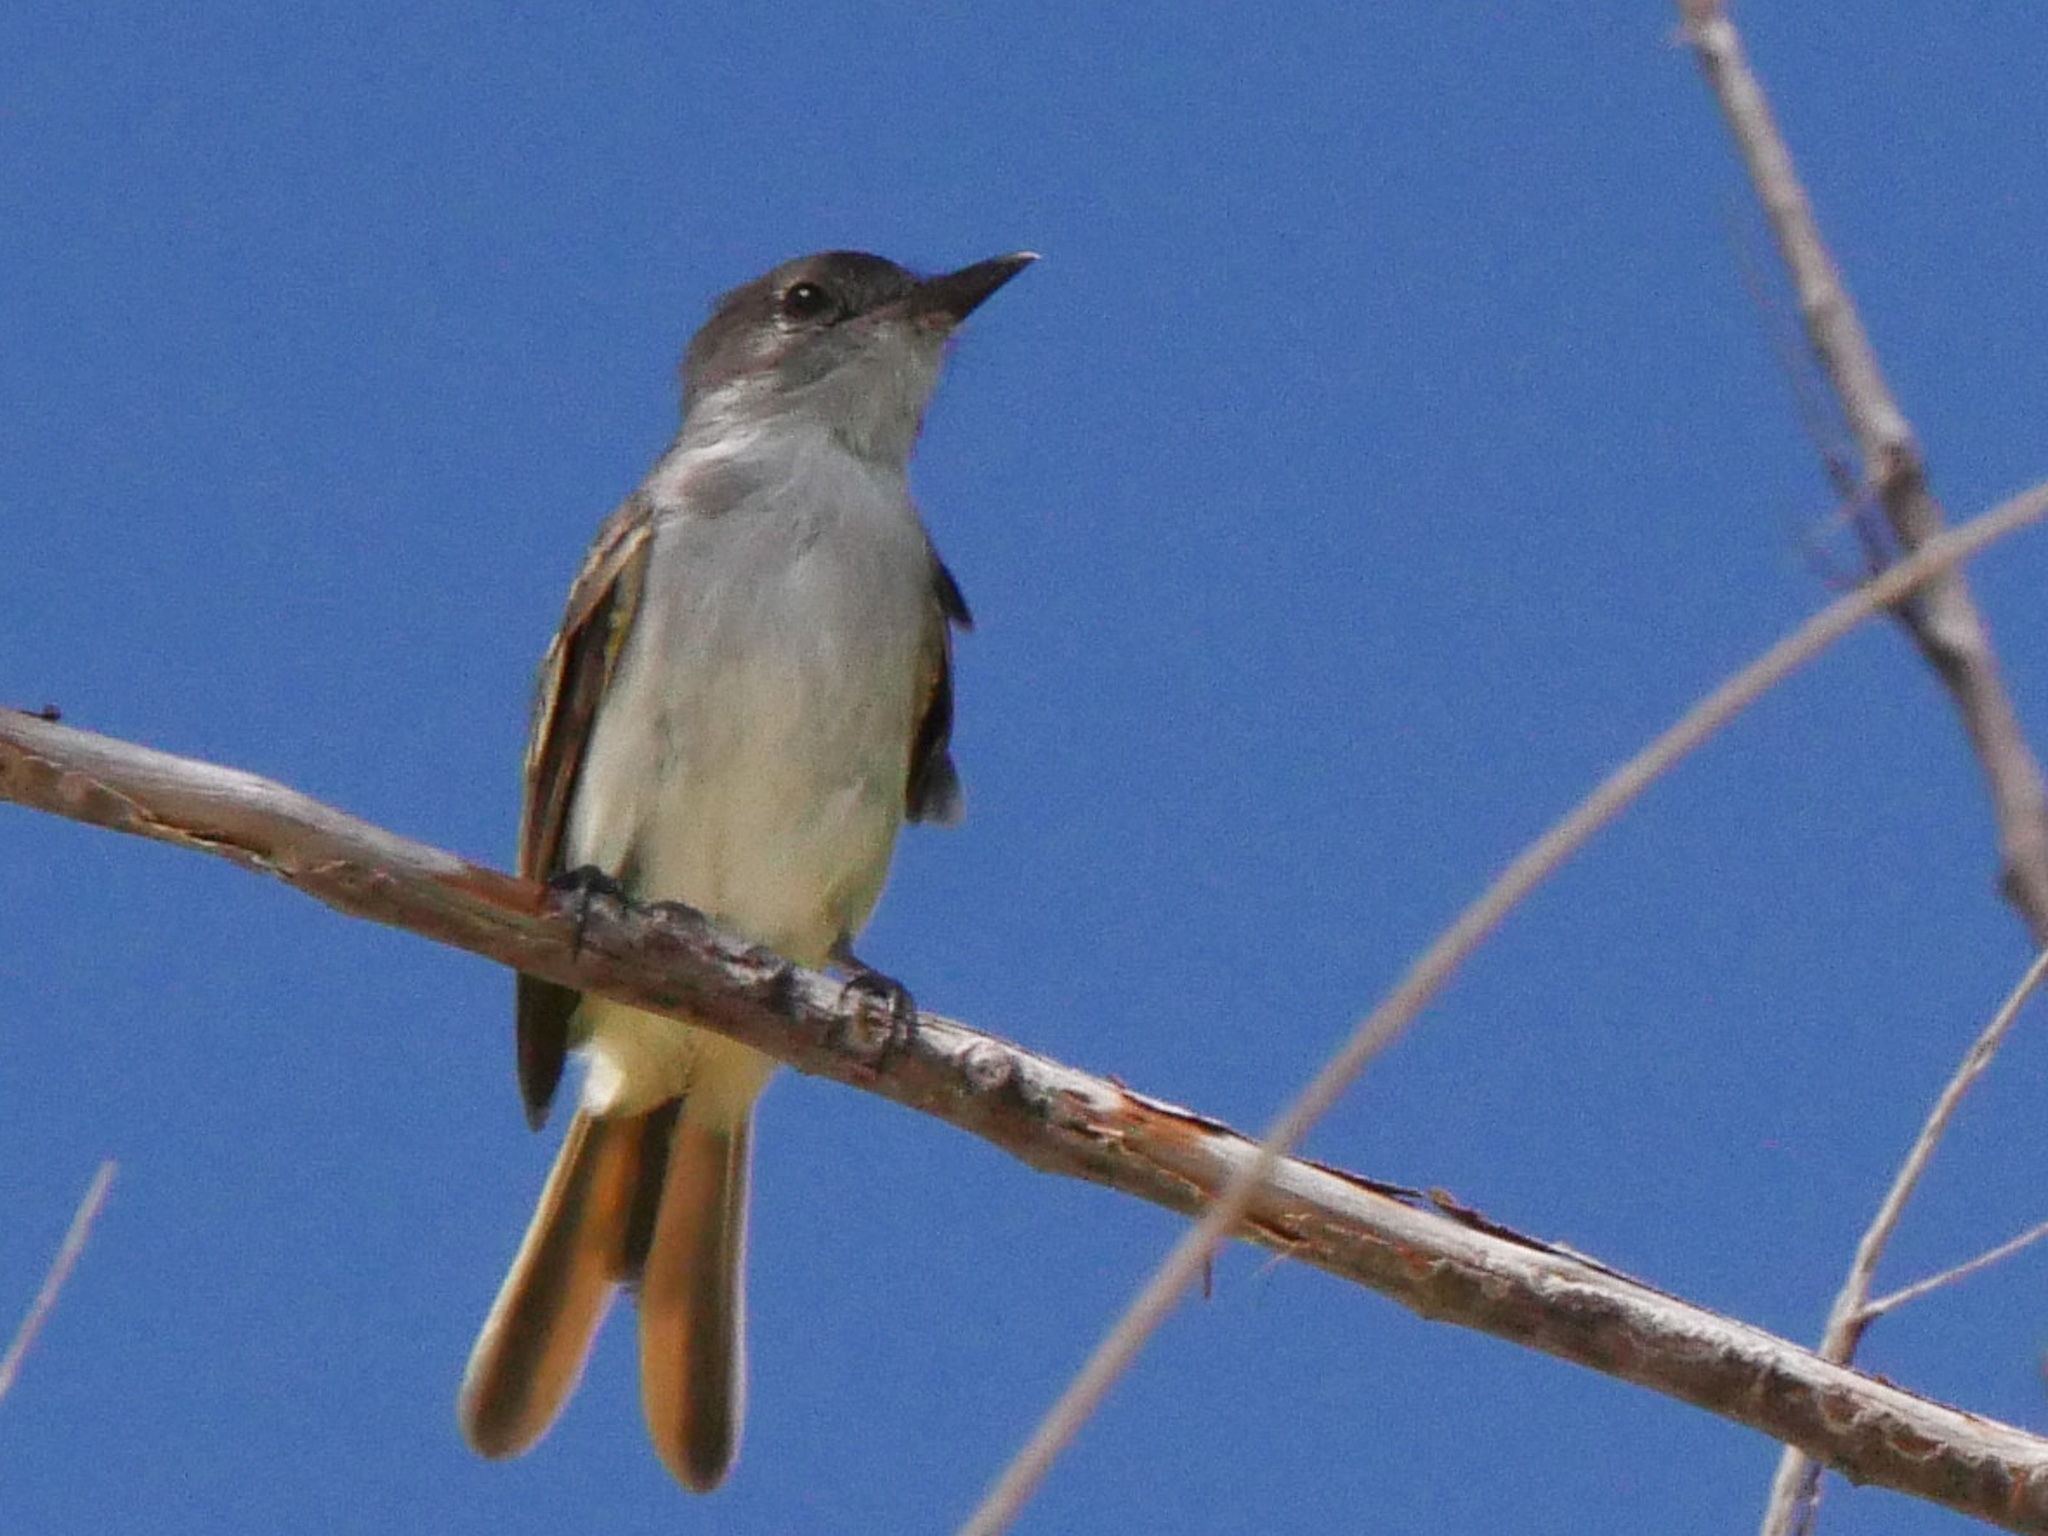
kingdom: Animalia
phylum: Chordata
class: Aves
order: Passeriformes
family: Tyrannidae
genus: Myiarchus
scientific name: Myiarchus sagrae
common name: La sagra's flycatcher
